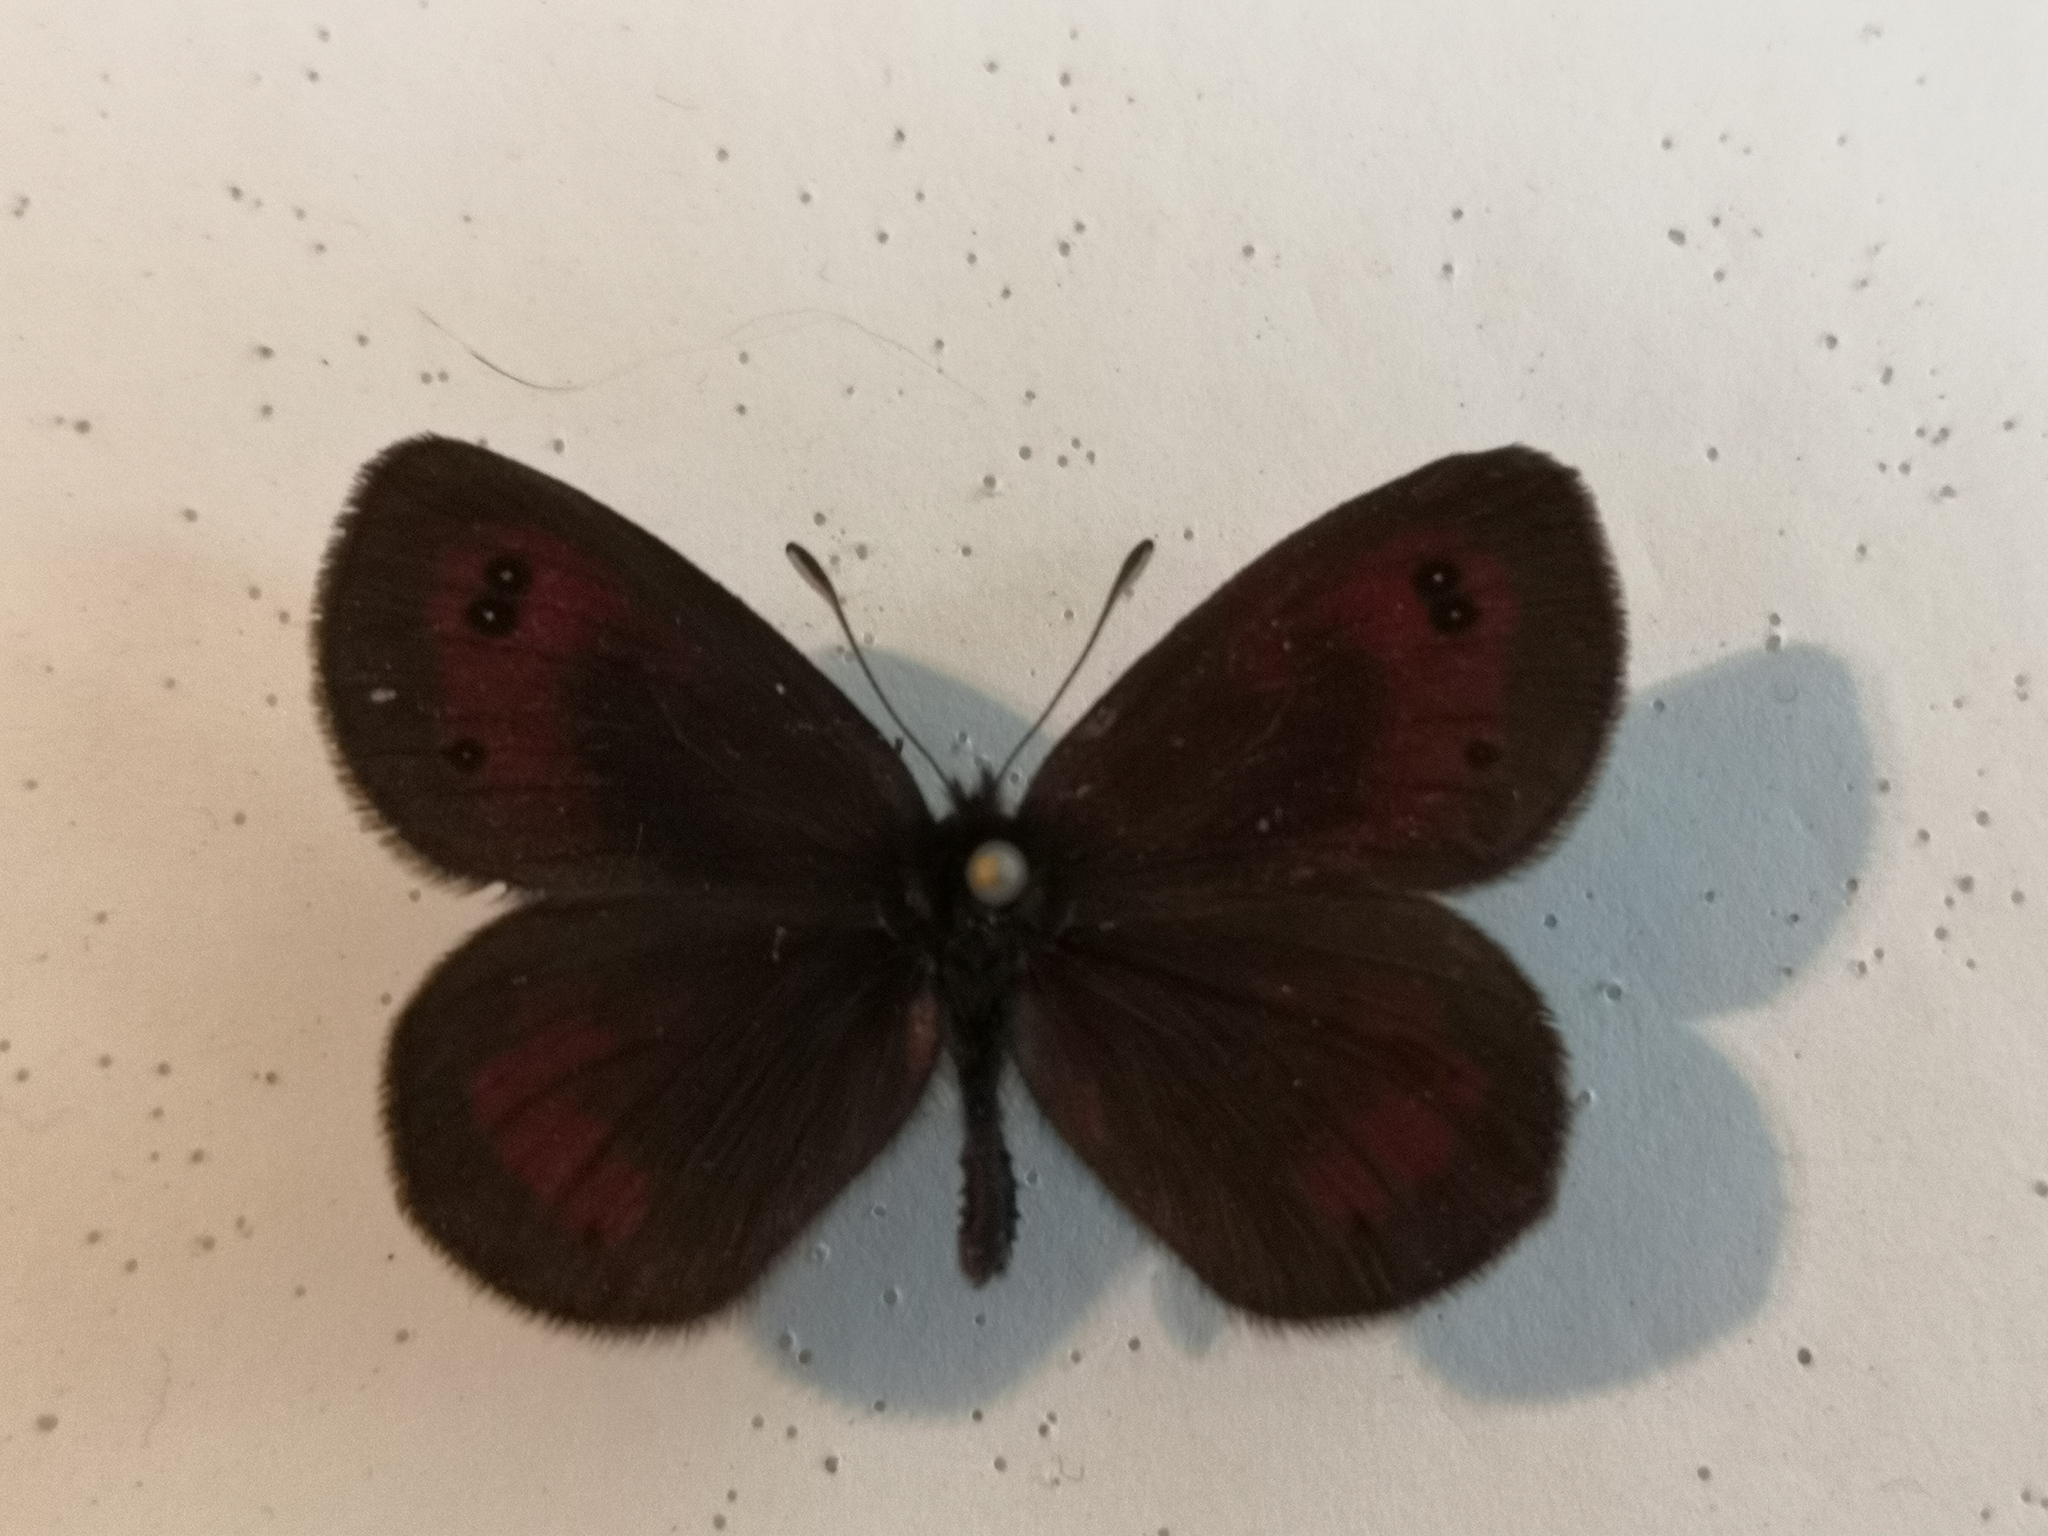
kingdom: Animalia
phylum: Arthropoda
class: Insecta
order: Lepidoptera
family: Nymphalidae
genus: Erebia
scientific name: Erebia gorgone
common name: Gavarnie ringlet
